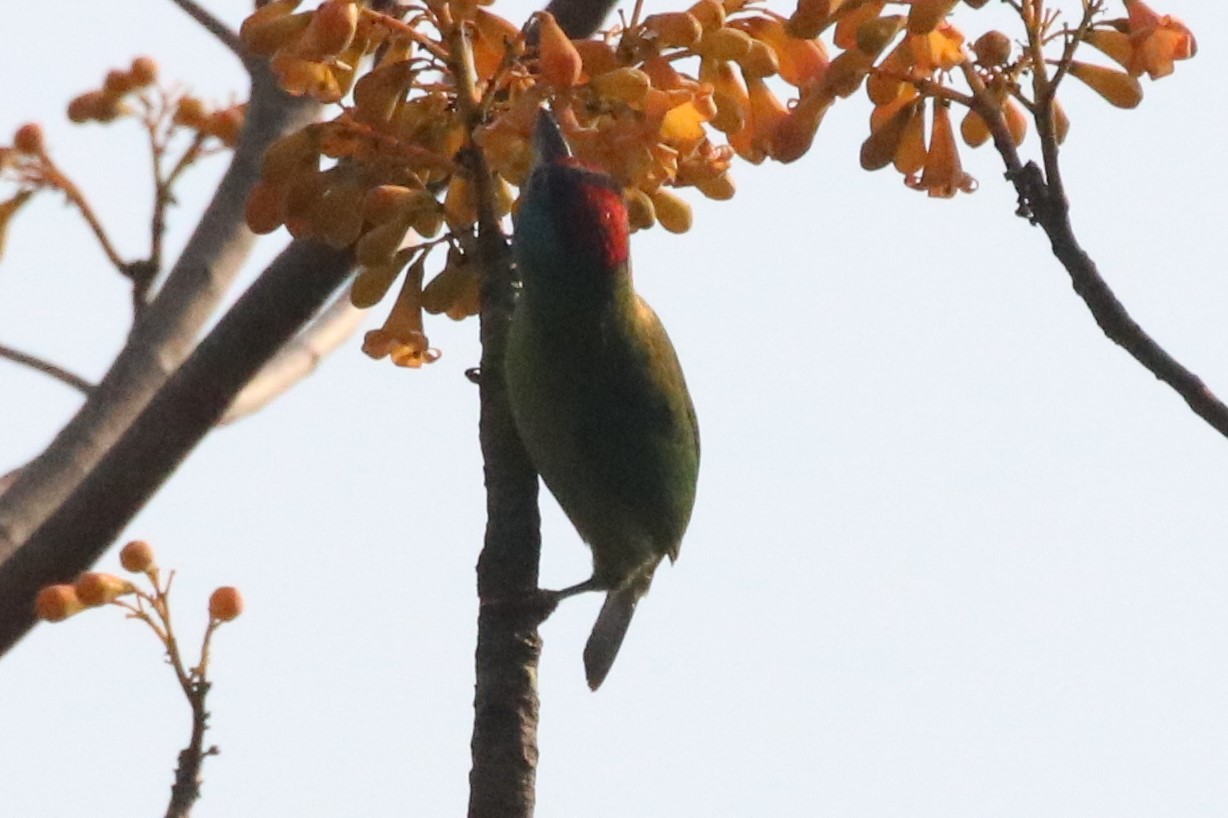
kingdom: Animalia
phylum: Chordata
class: Aves
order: Piciformes
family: Megalaimidae
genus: Psilopogon
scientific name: Psilopogon asiaticus
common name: Blue-throated barbet
